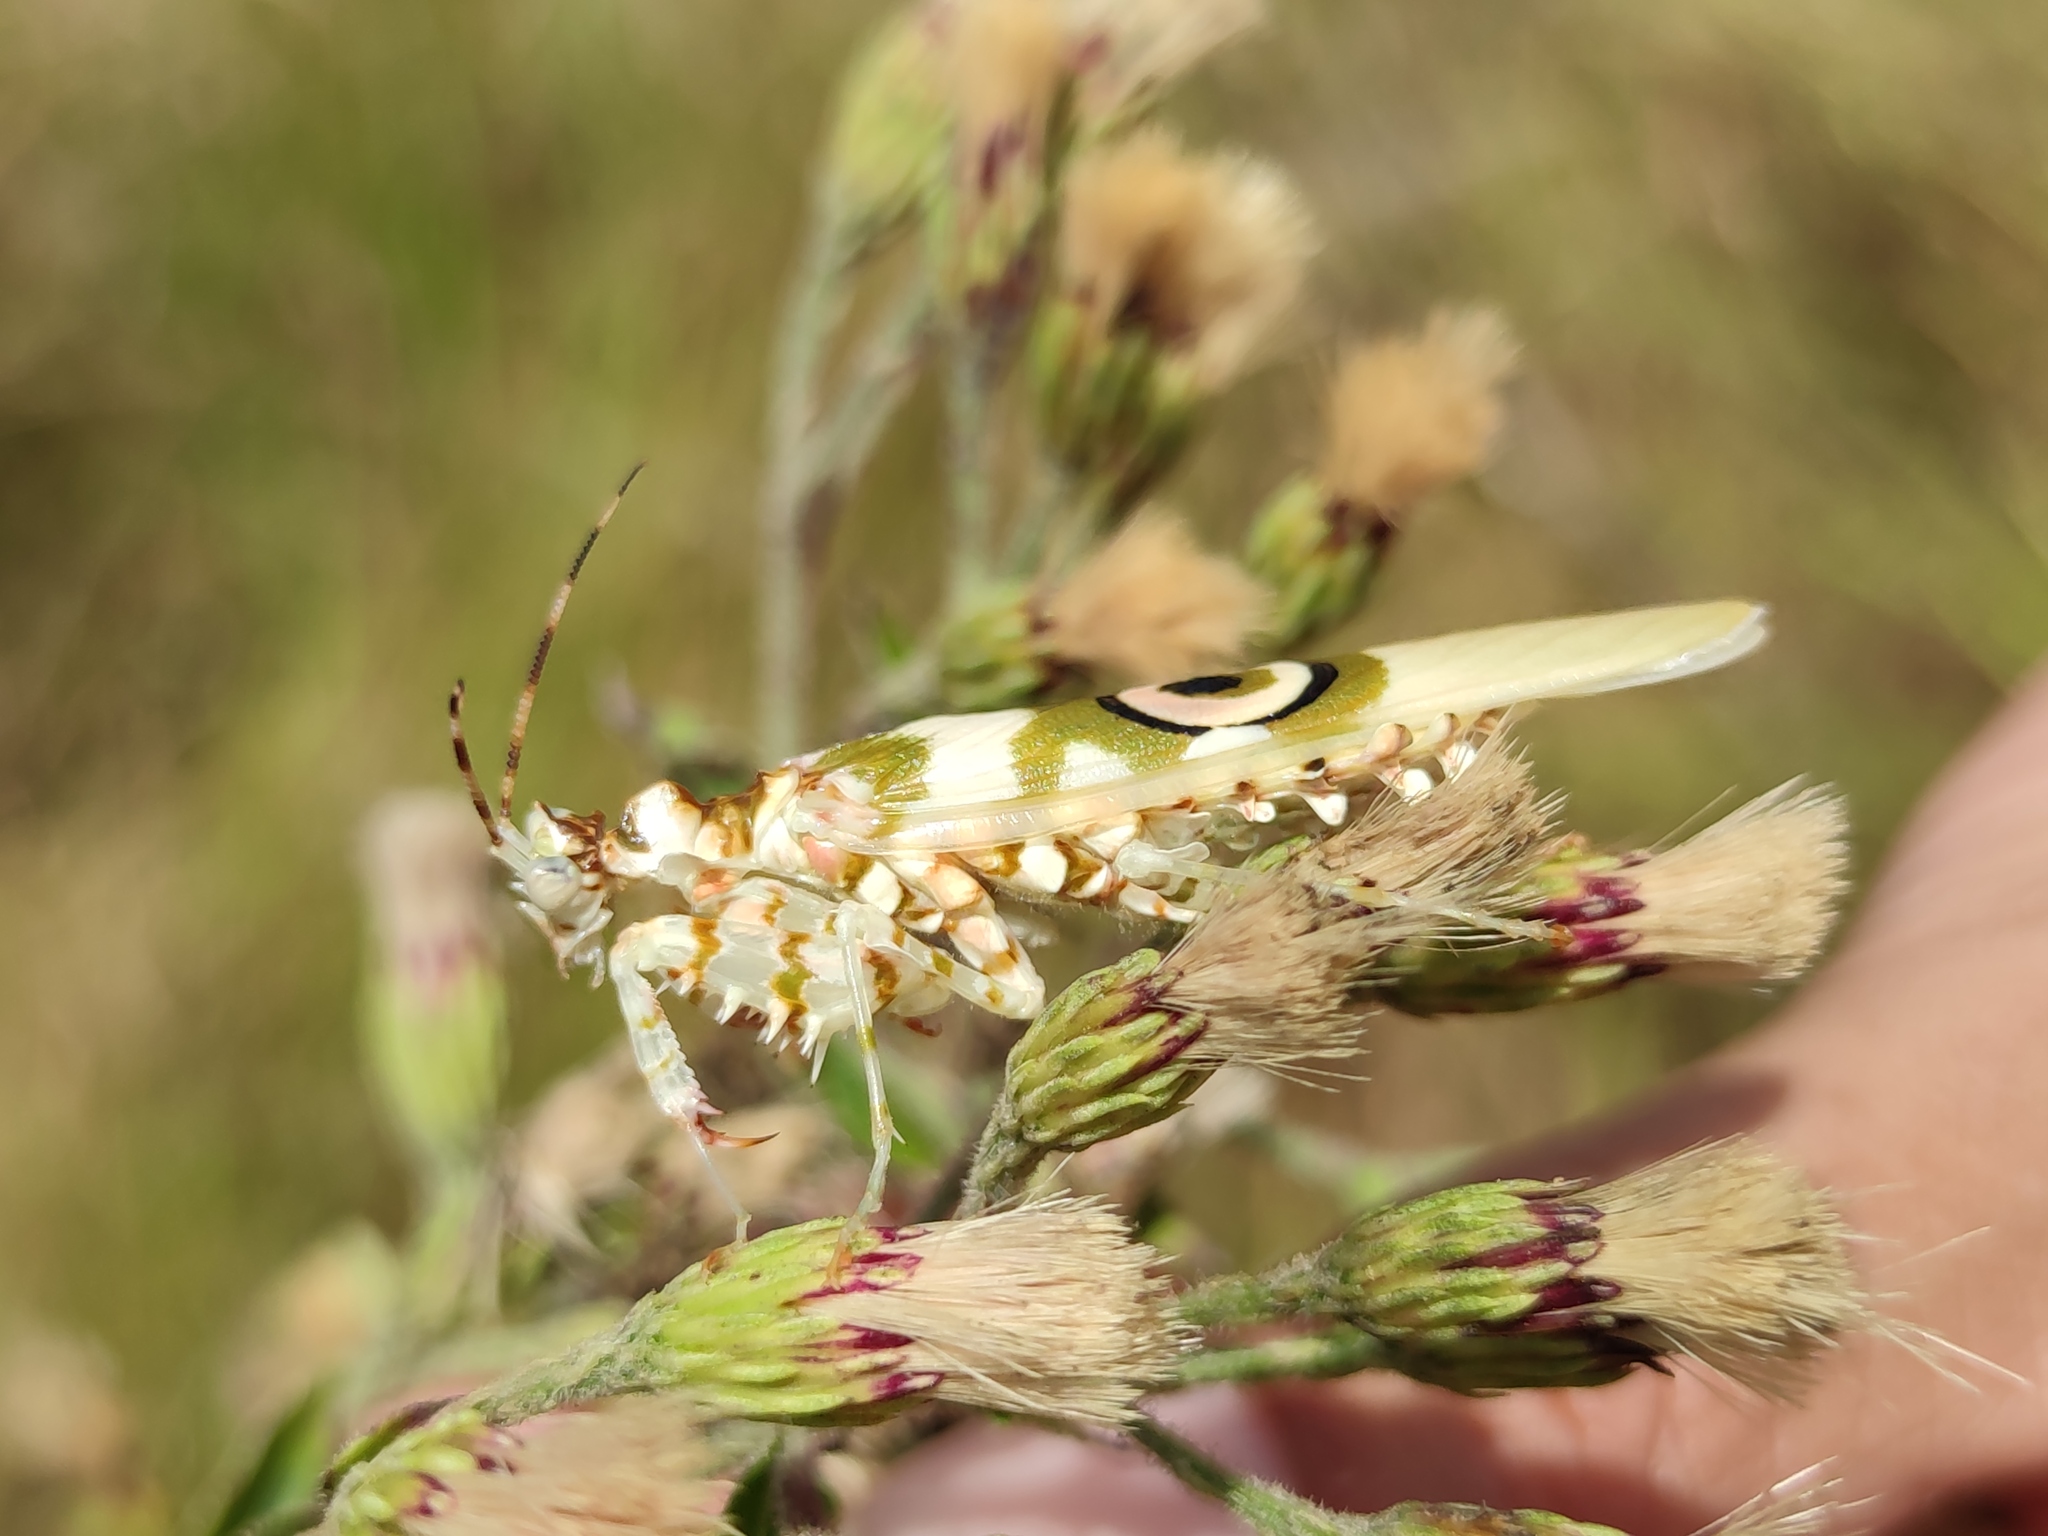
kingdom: Animalia
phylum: Arthropoda
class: Insecta
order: Mantodea
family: Hymenopodidae
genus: Pseudocreobotra
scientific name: Pseudocreobotra wahlbergi
